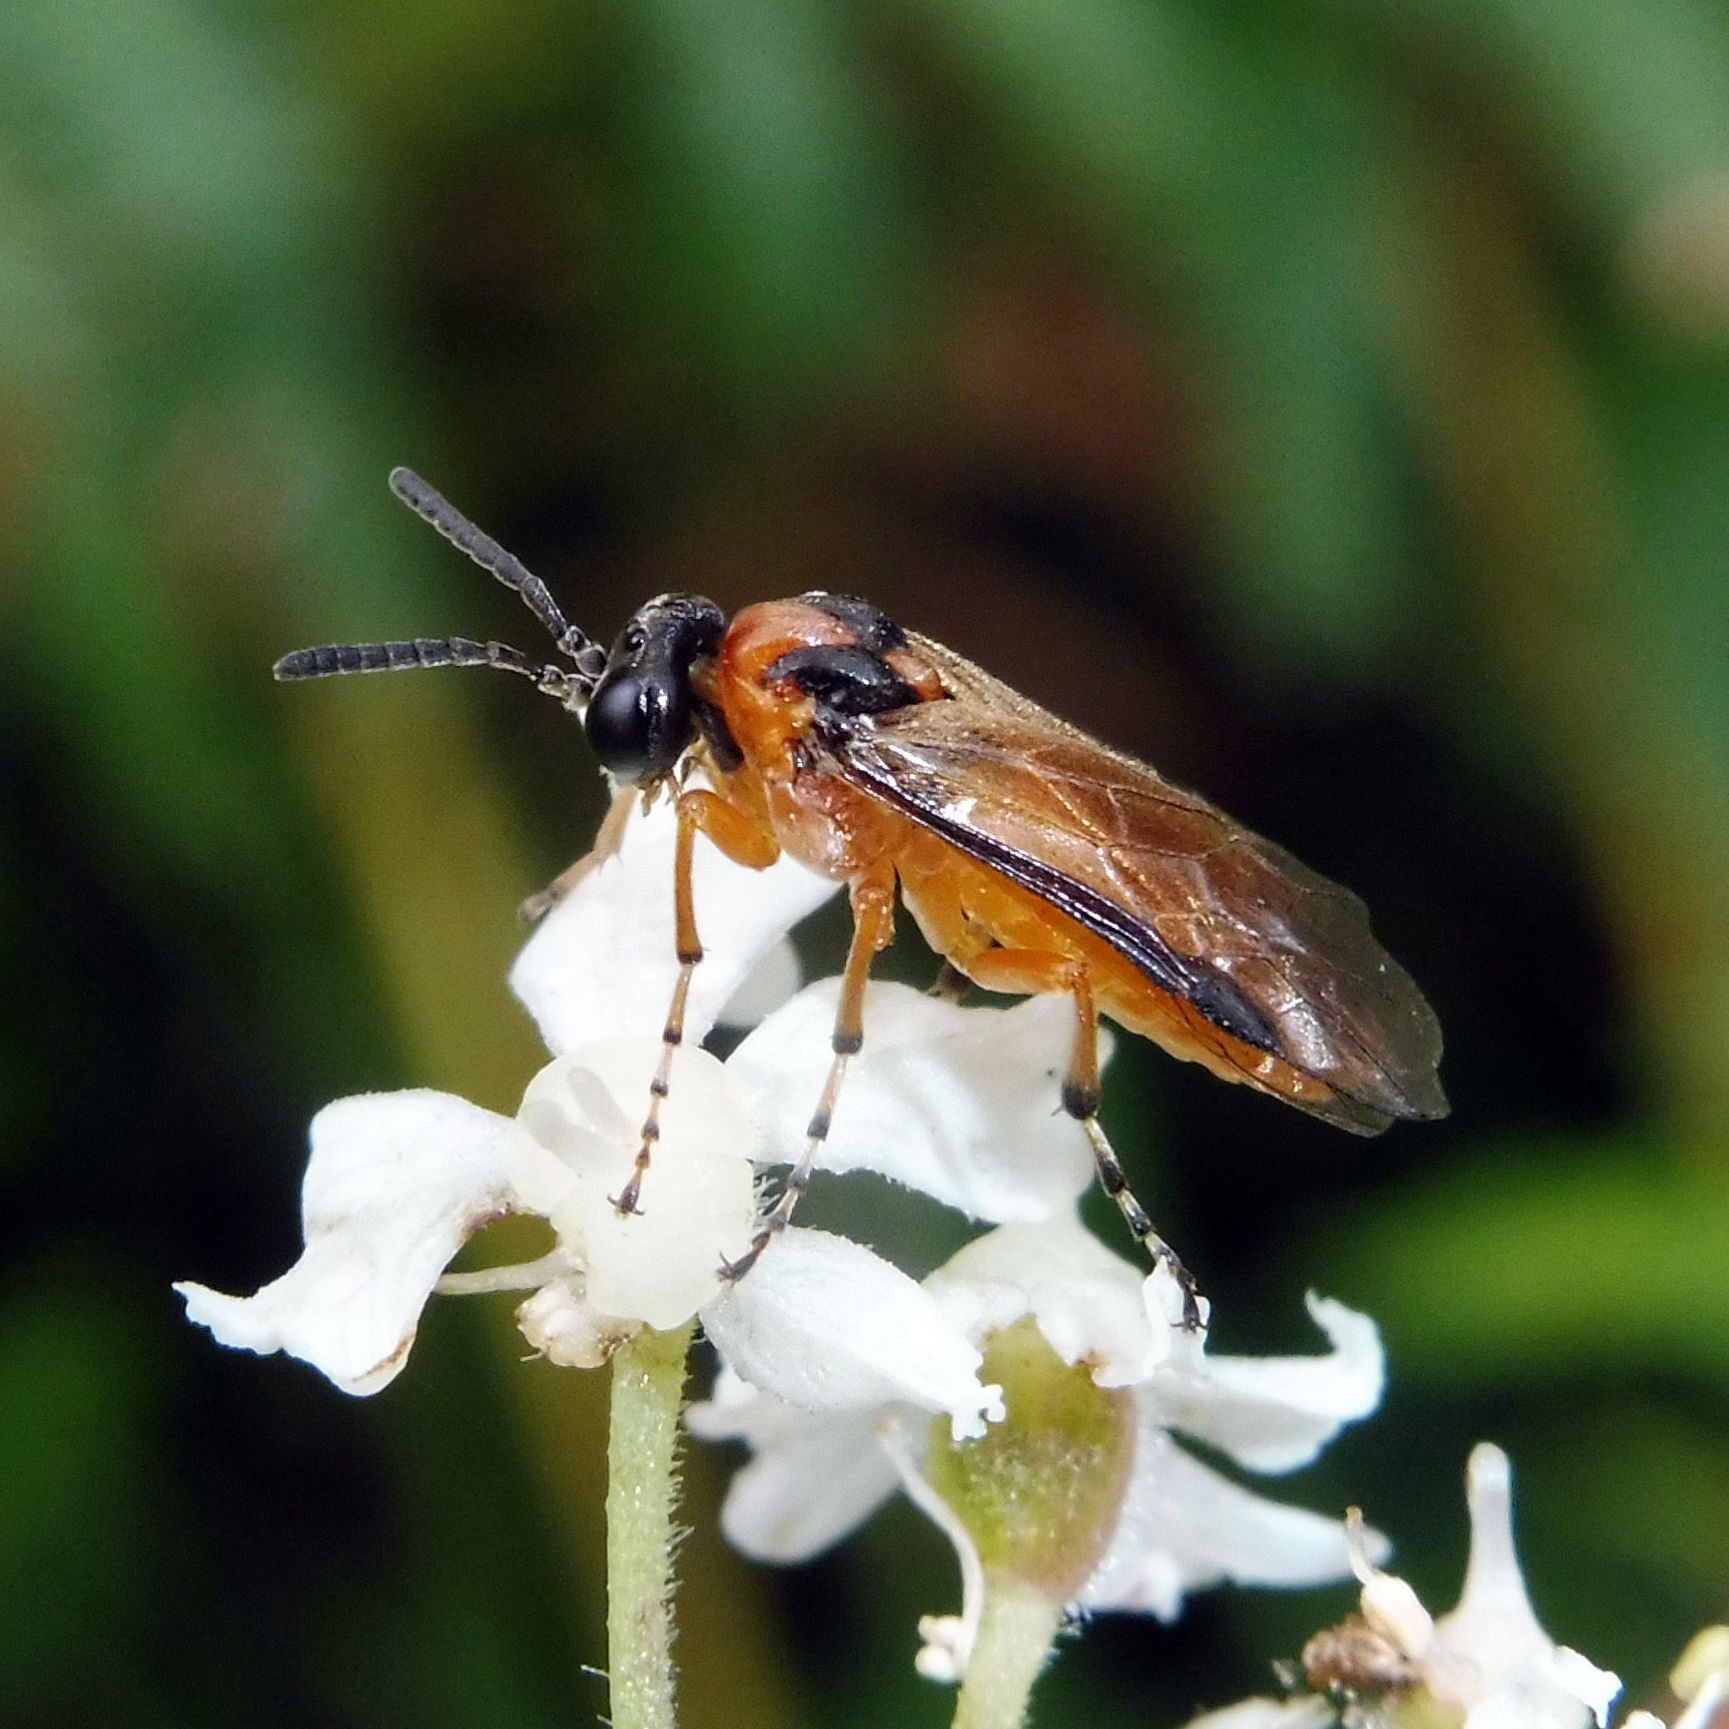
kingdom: Animalia
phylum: Arthropoda
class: Insecta
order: Hymenoptera
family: Tenthredinidae
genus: Athalia
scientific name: Athalia rosae
